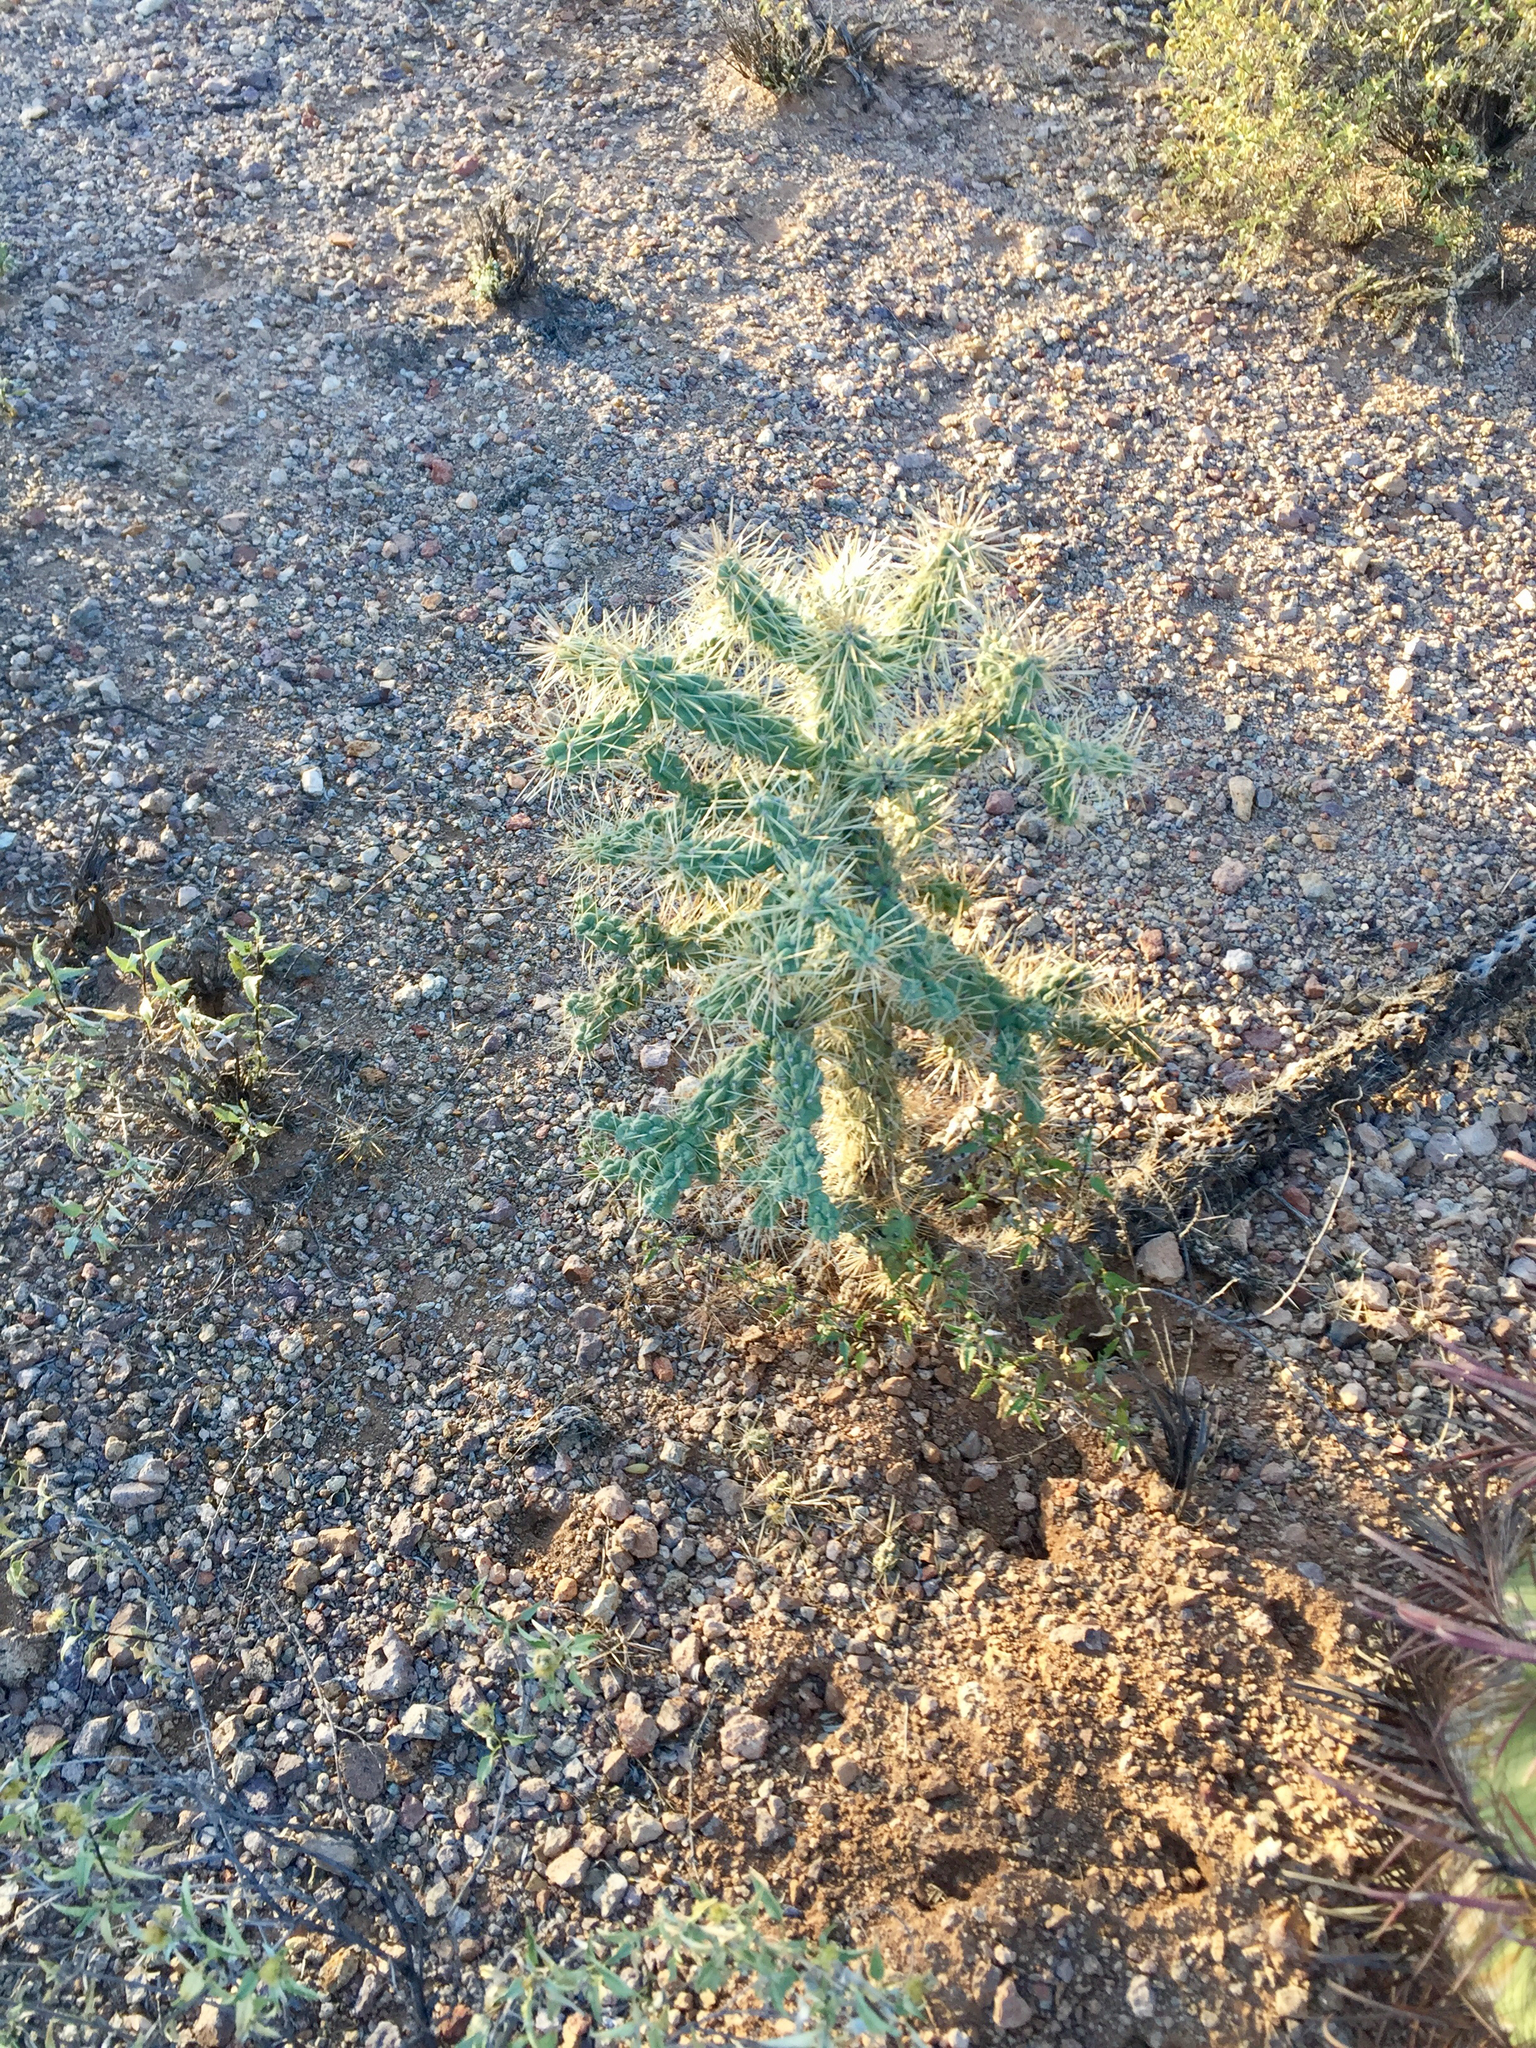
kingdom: Plantae
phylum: Tracheophyta
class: Magnoliopsida
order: Caryophyllales
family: Cactaceae
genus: Cylindropuntia
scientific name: Cylindropuntia fulgida
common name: Jumping cholla
